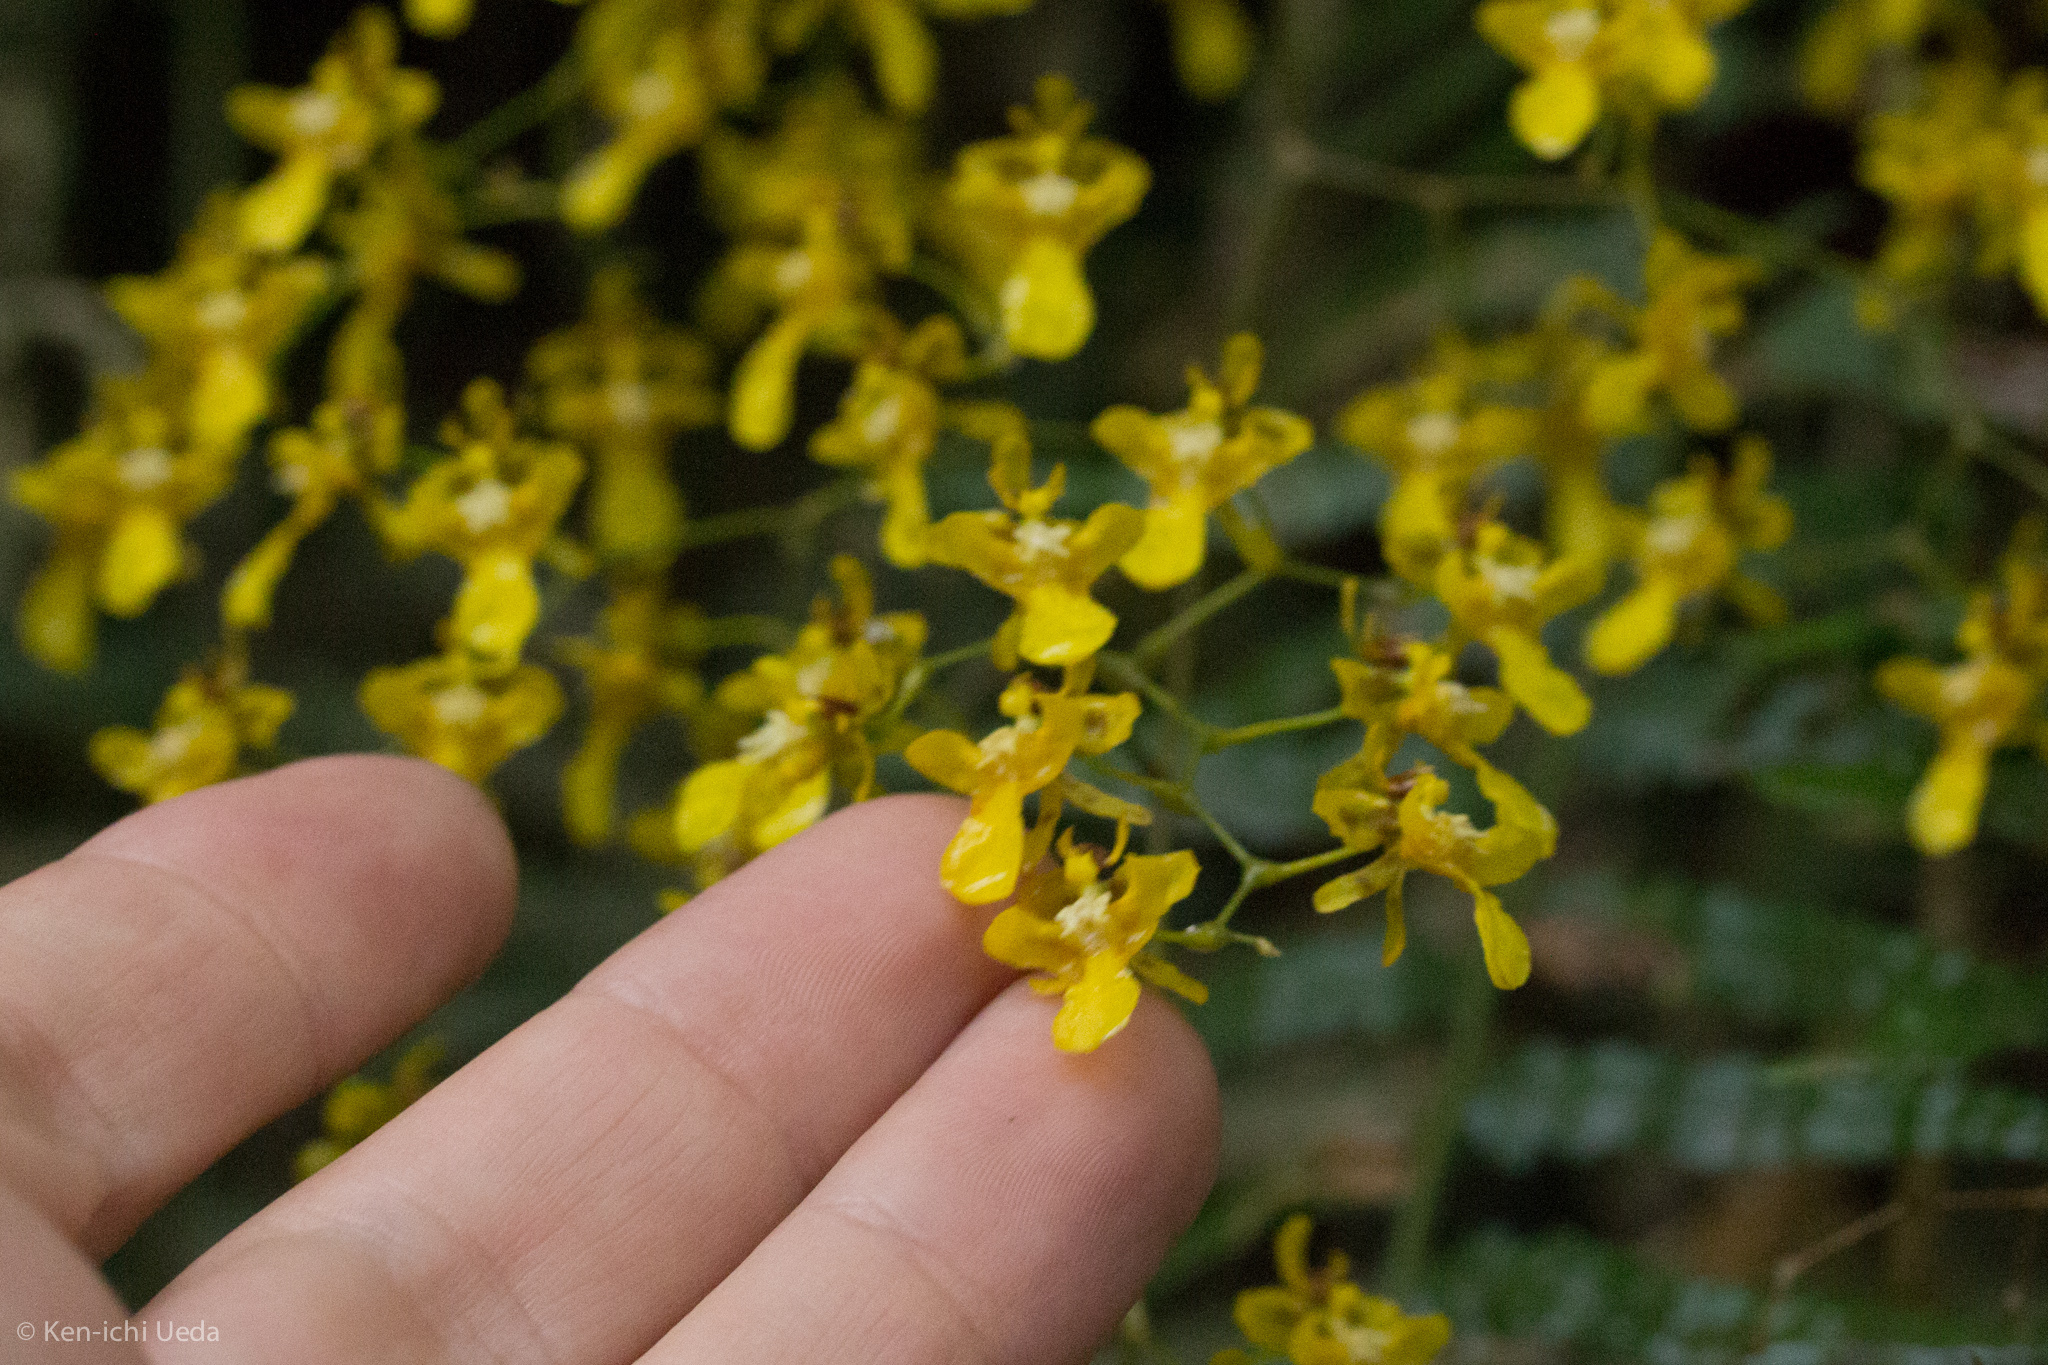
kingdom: Plantae
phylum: Tracheophyta
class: Liliopsida
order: Asparagales
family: Orchidaceae
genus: Oncidium
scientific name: Oncidium ornithorhynchum
